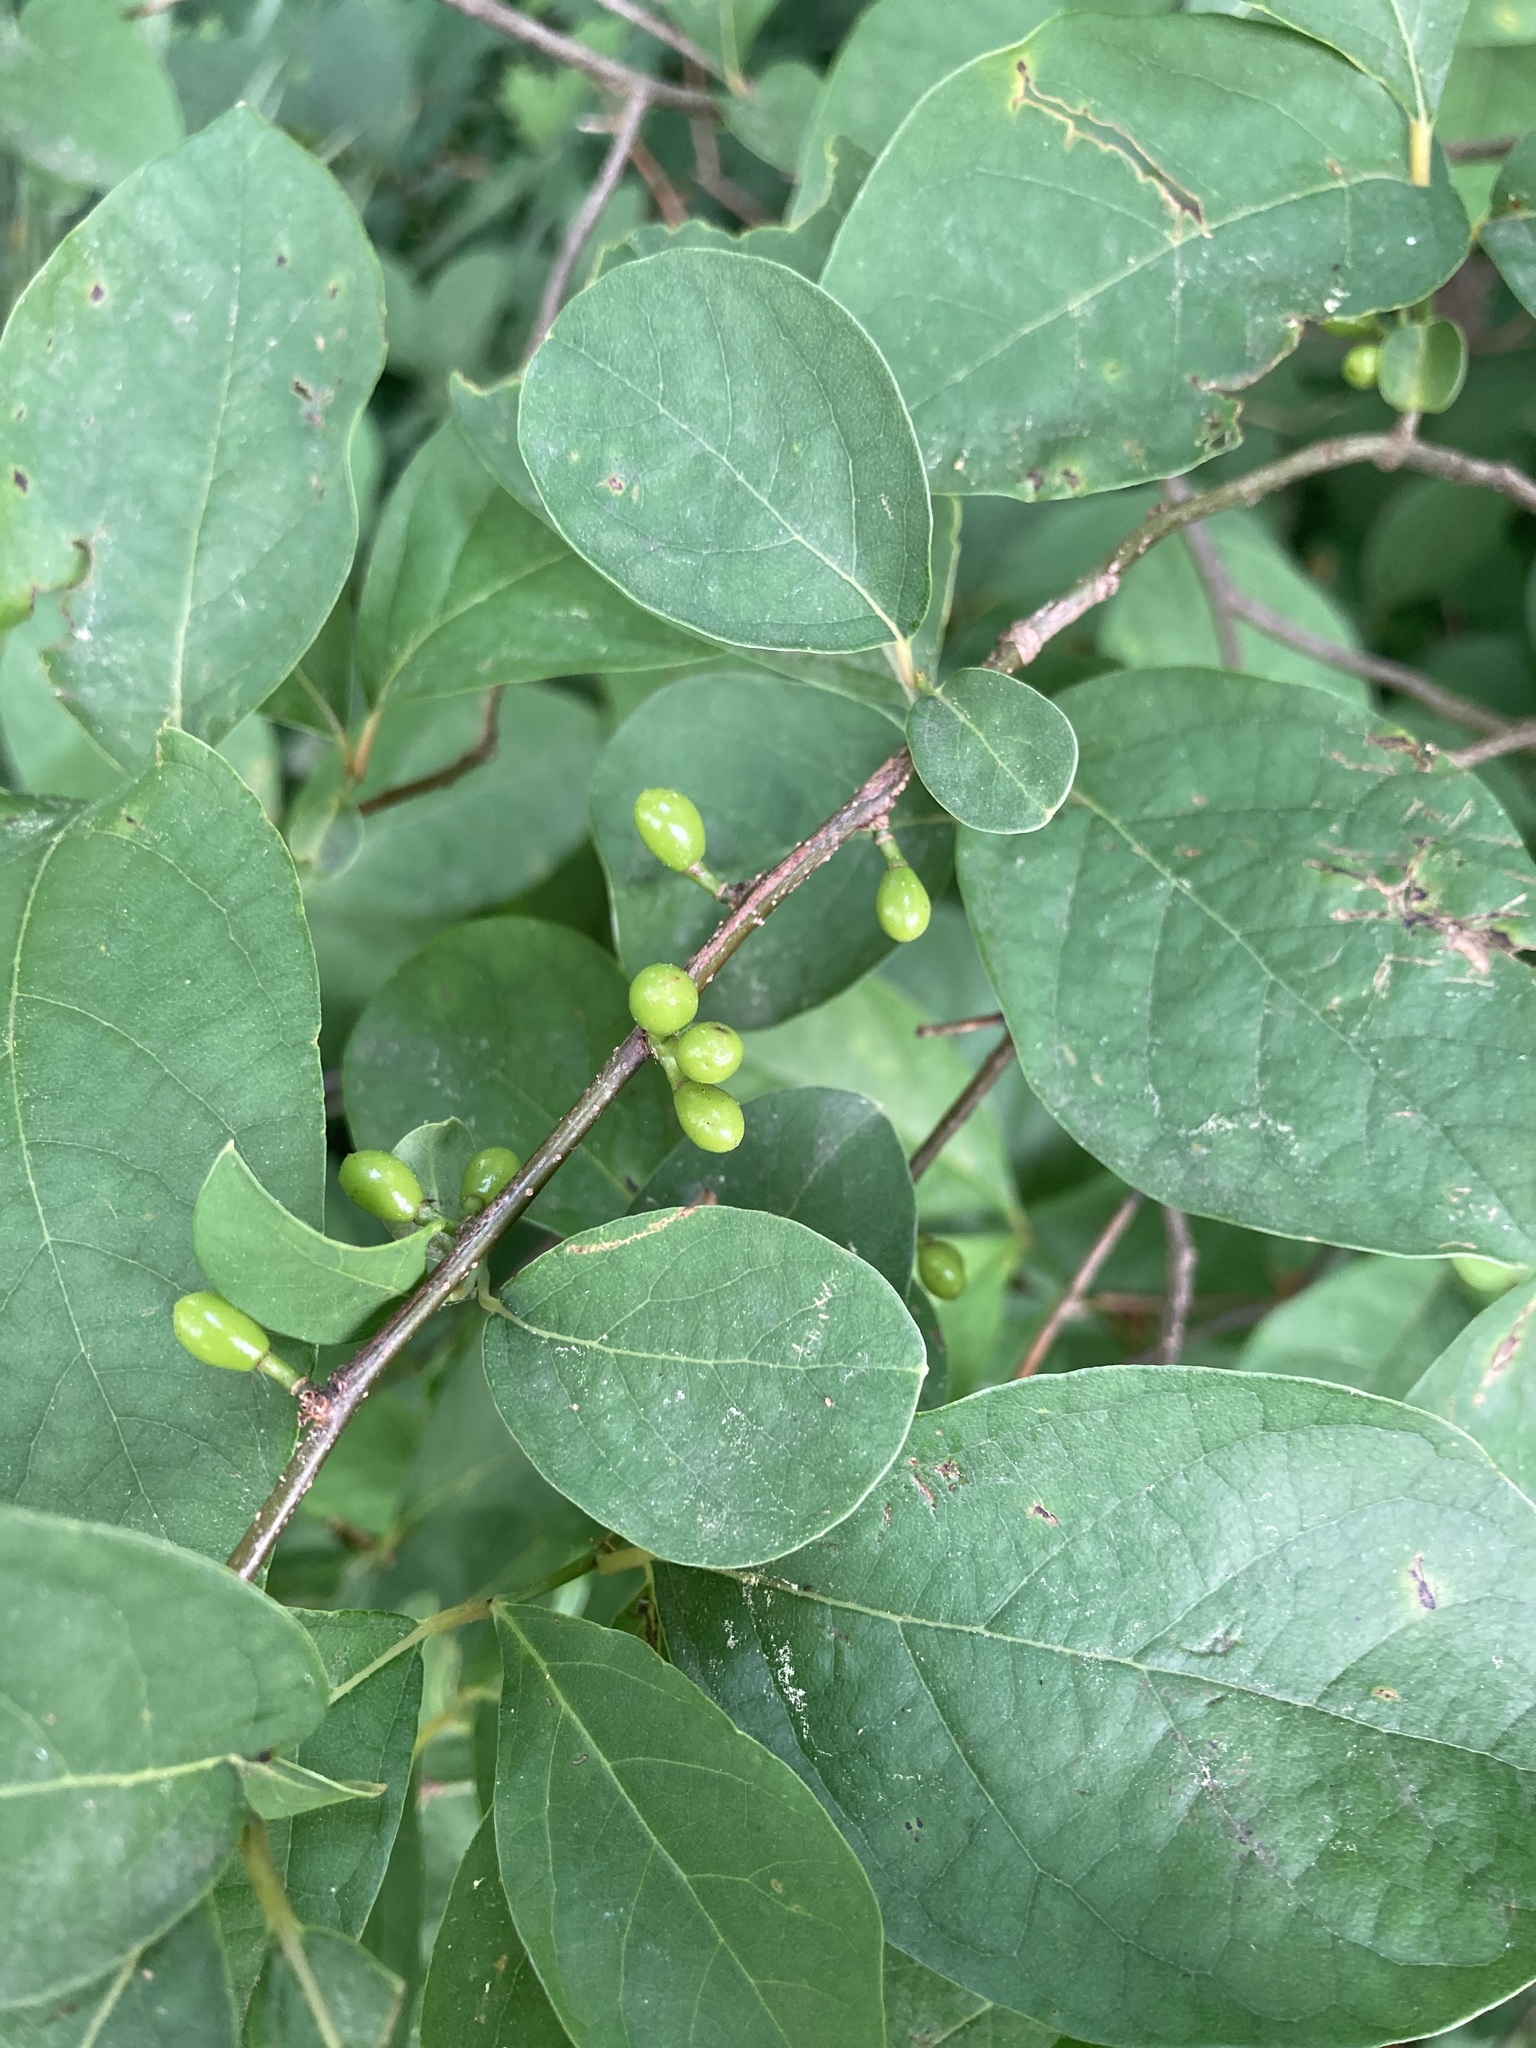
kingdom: Plantae
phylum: Tracheophyta
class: Magnoliopsida
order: Laurales
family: Lauraceae
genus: Lindera
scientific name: Lindera benzoin
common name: Spicebush
